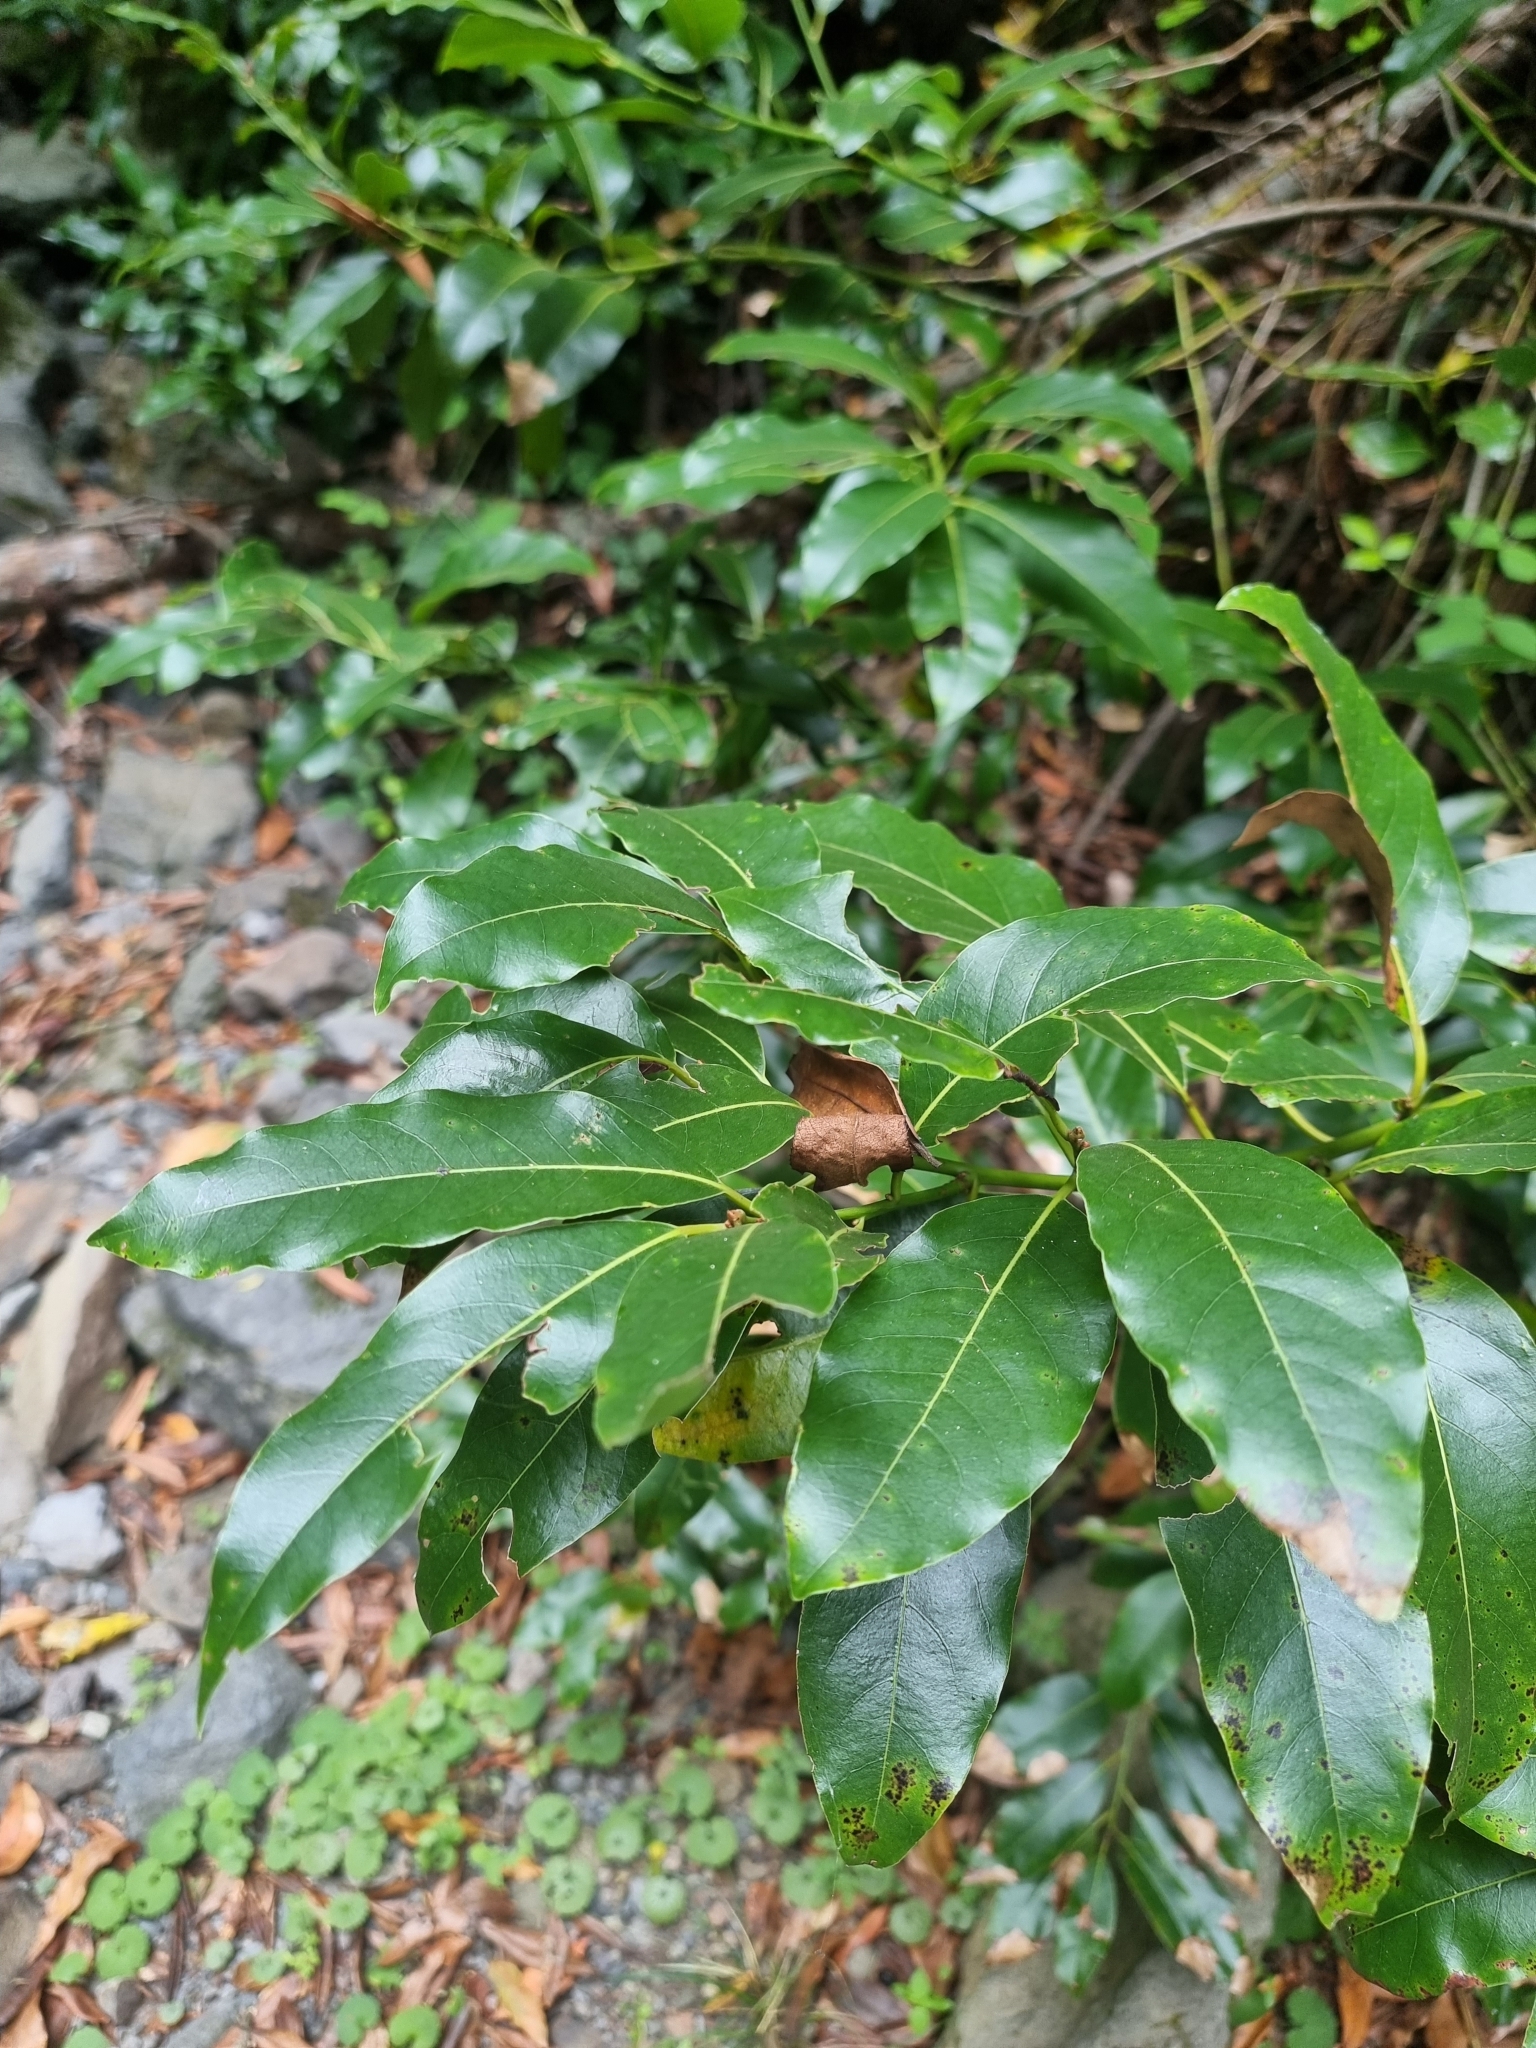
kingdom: Plantae
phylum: Tracheophyta
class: Magnoliopsida
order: Laurales
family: Lauraceae
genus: Laurus
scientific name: Laurus novocanariensis
